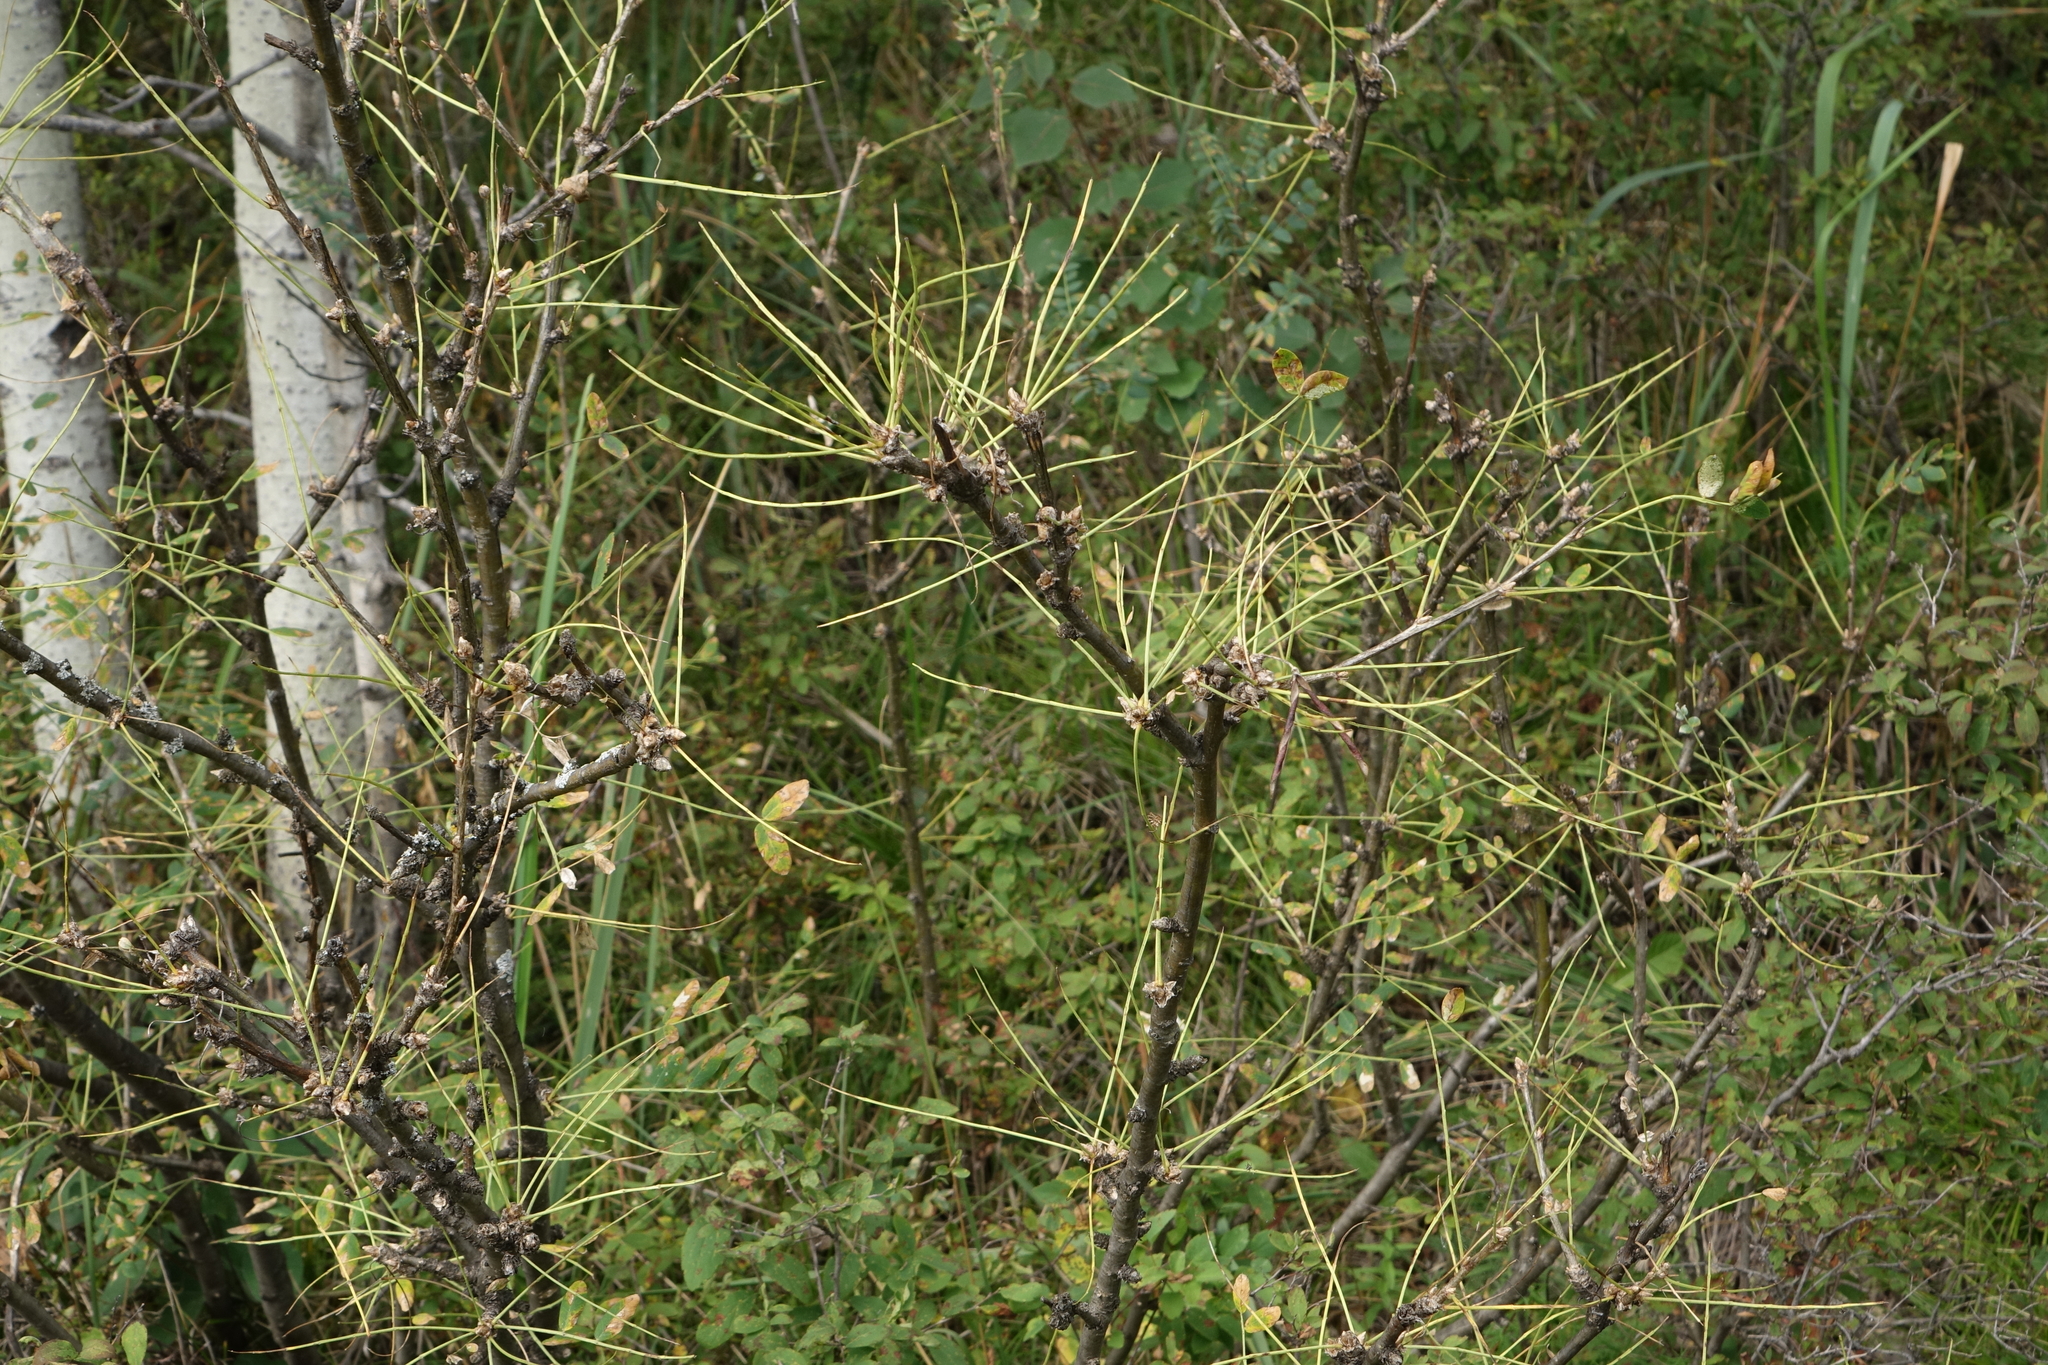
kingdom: Plantae
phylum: Tracheophyta
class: Magnoliopsida
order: Fabales
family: Fabaceae
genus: Caragana
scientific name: Caragana arborescens
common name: Siberian peashrub
